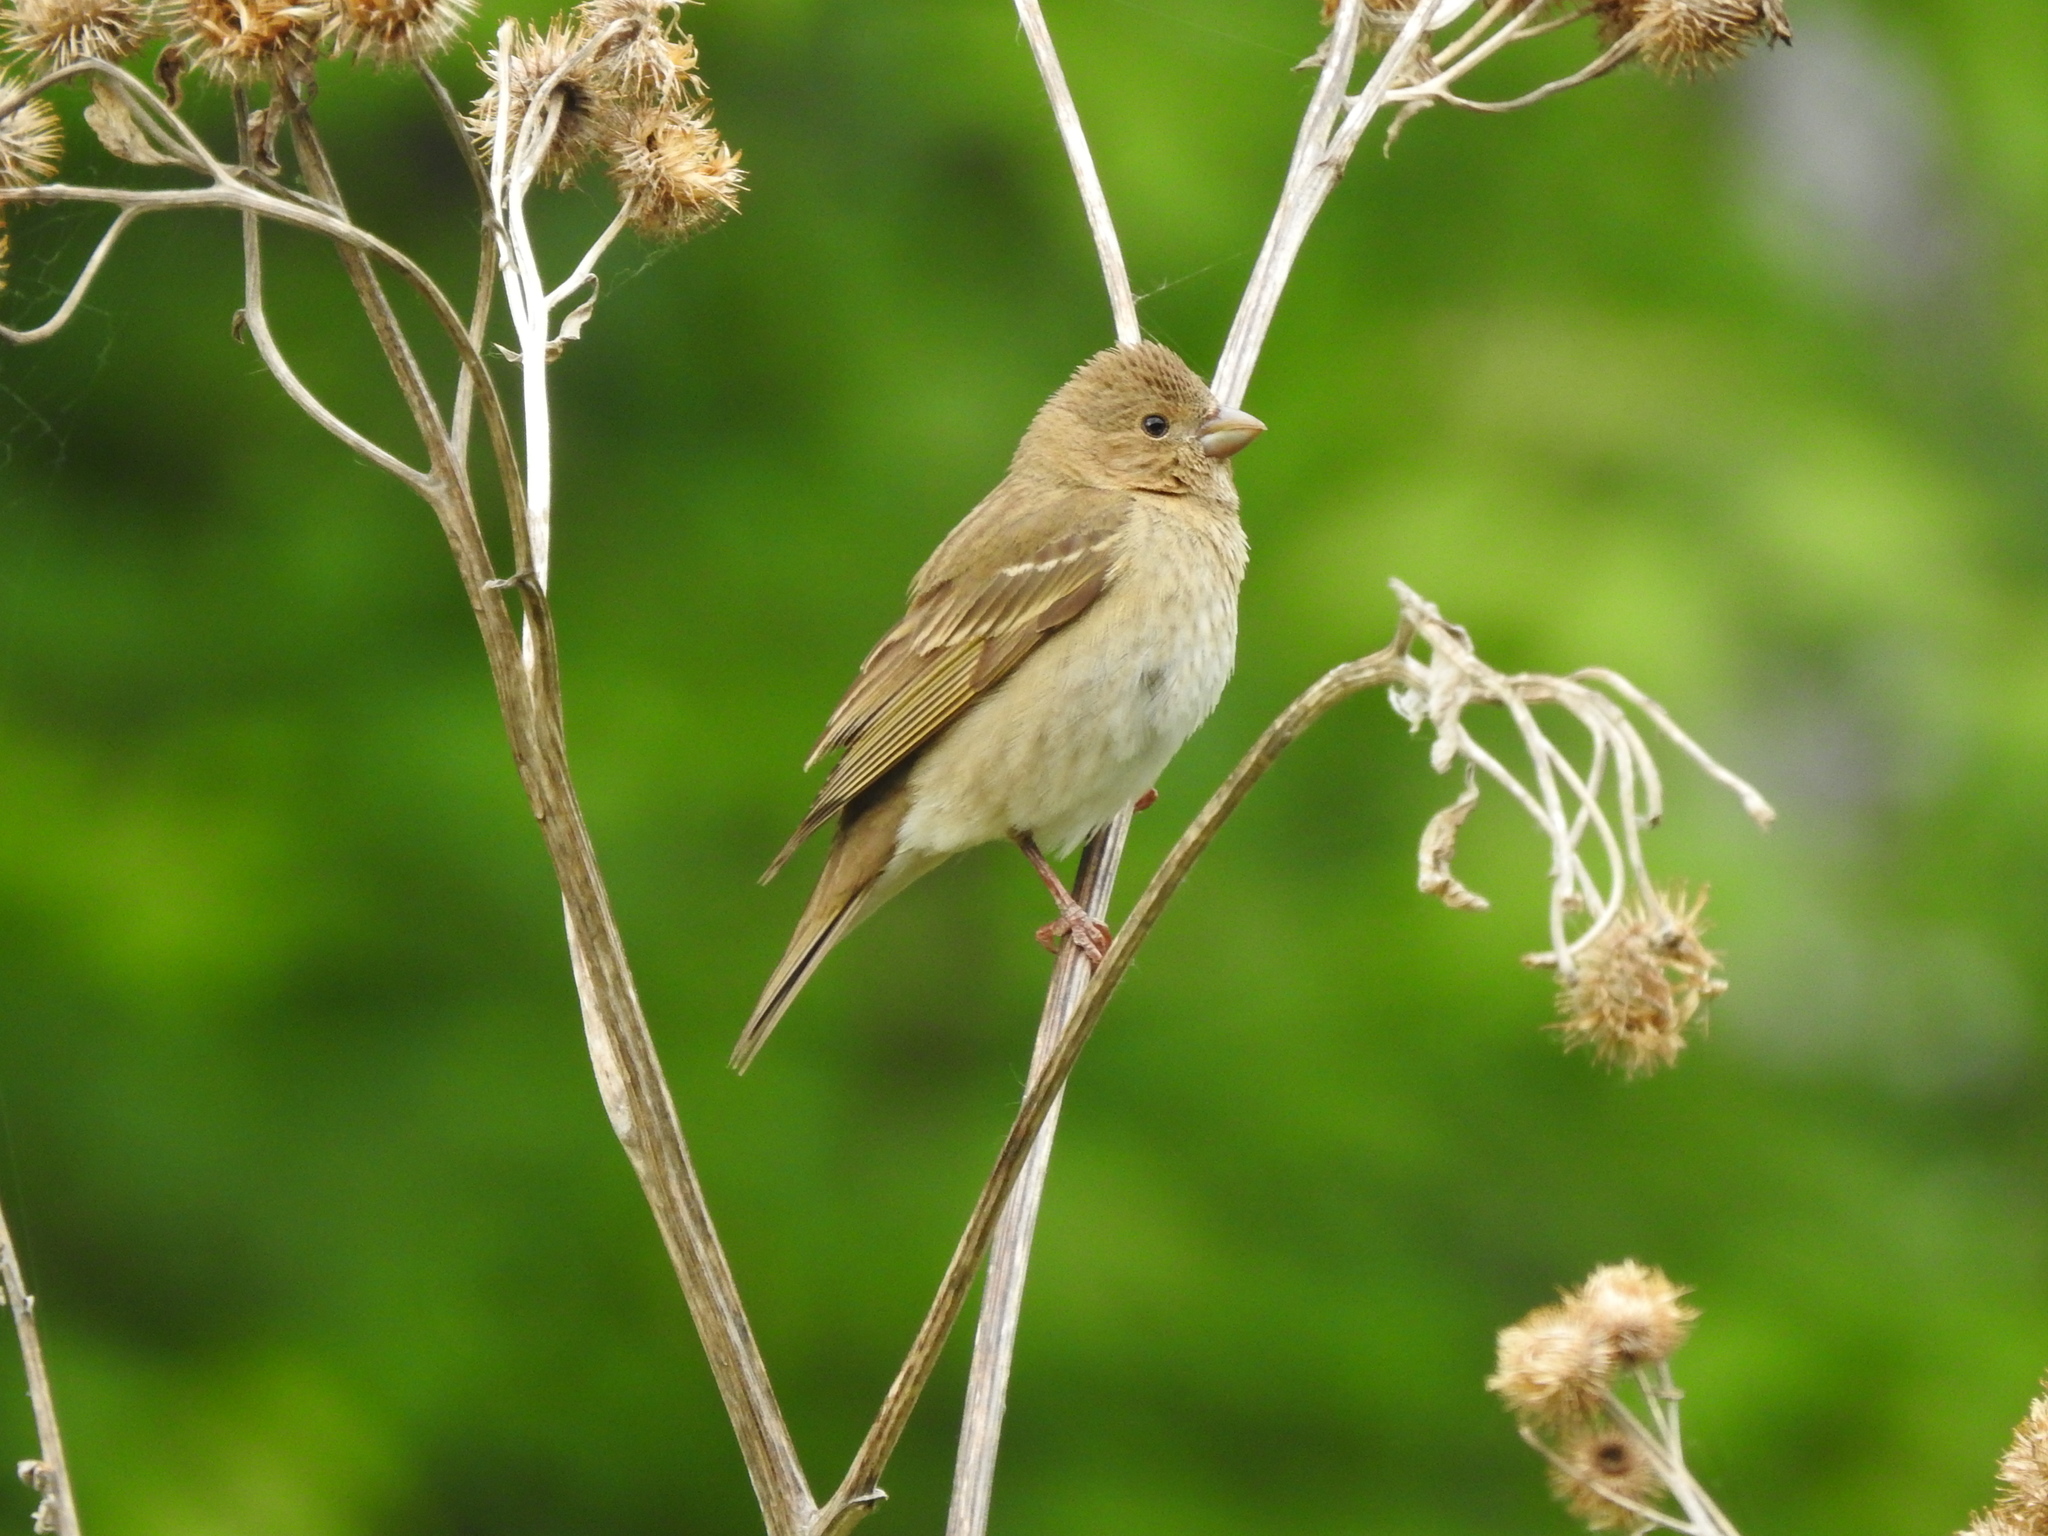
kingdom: Animalia
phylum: Chordata
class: Aves
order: Passeriformes
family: Fringillidae
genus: Carpodacus
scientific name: Carpodacus erythrinus
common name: Common rosefinch
